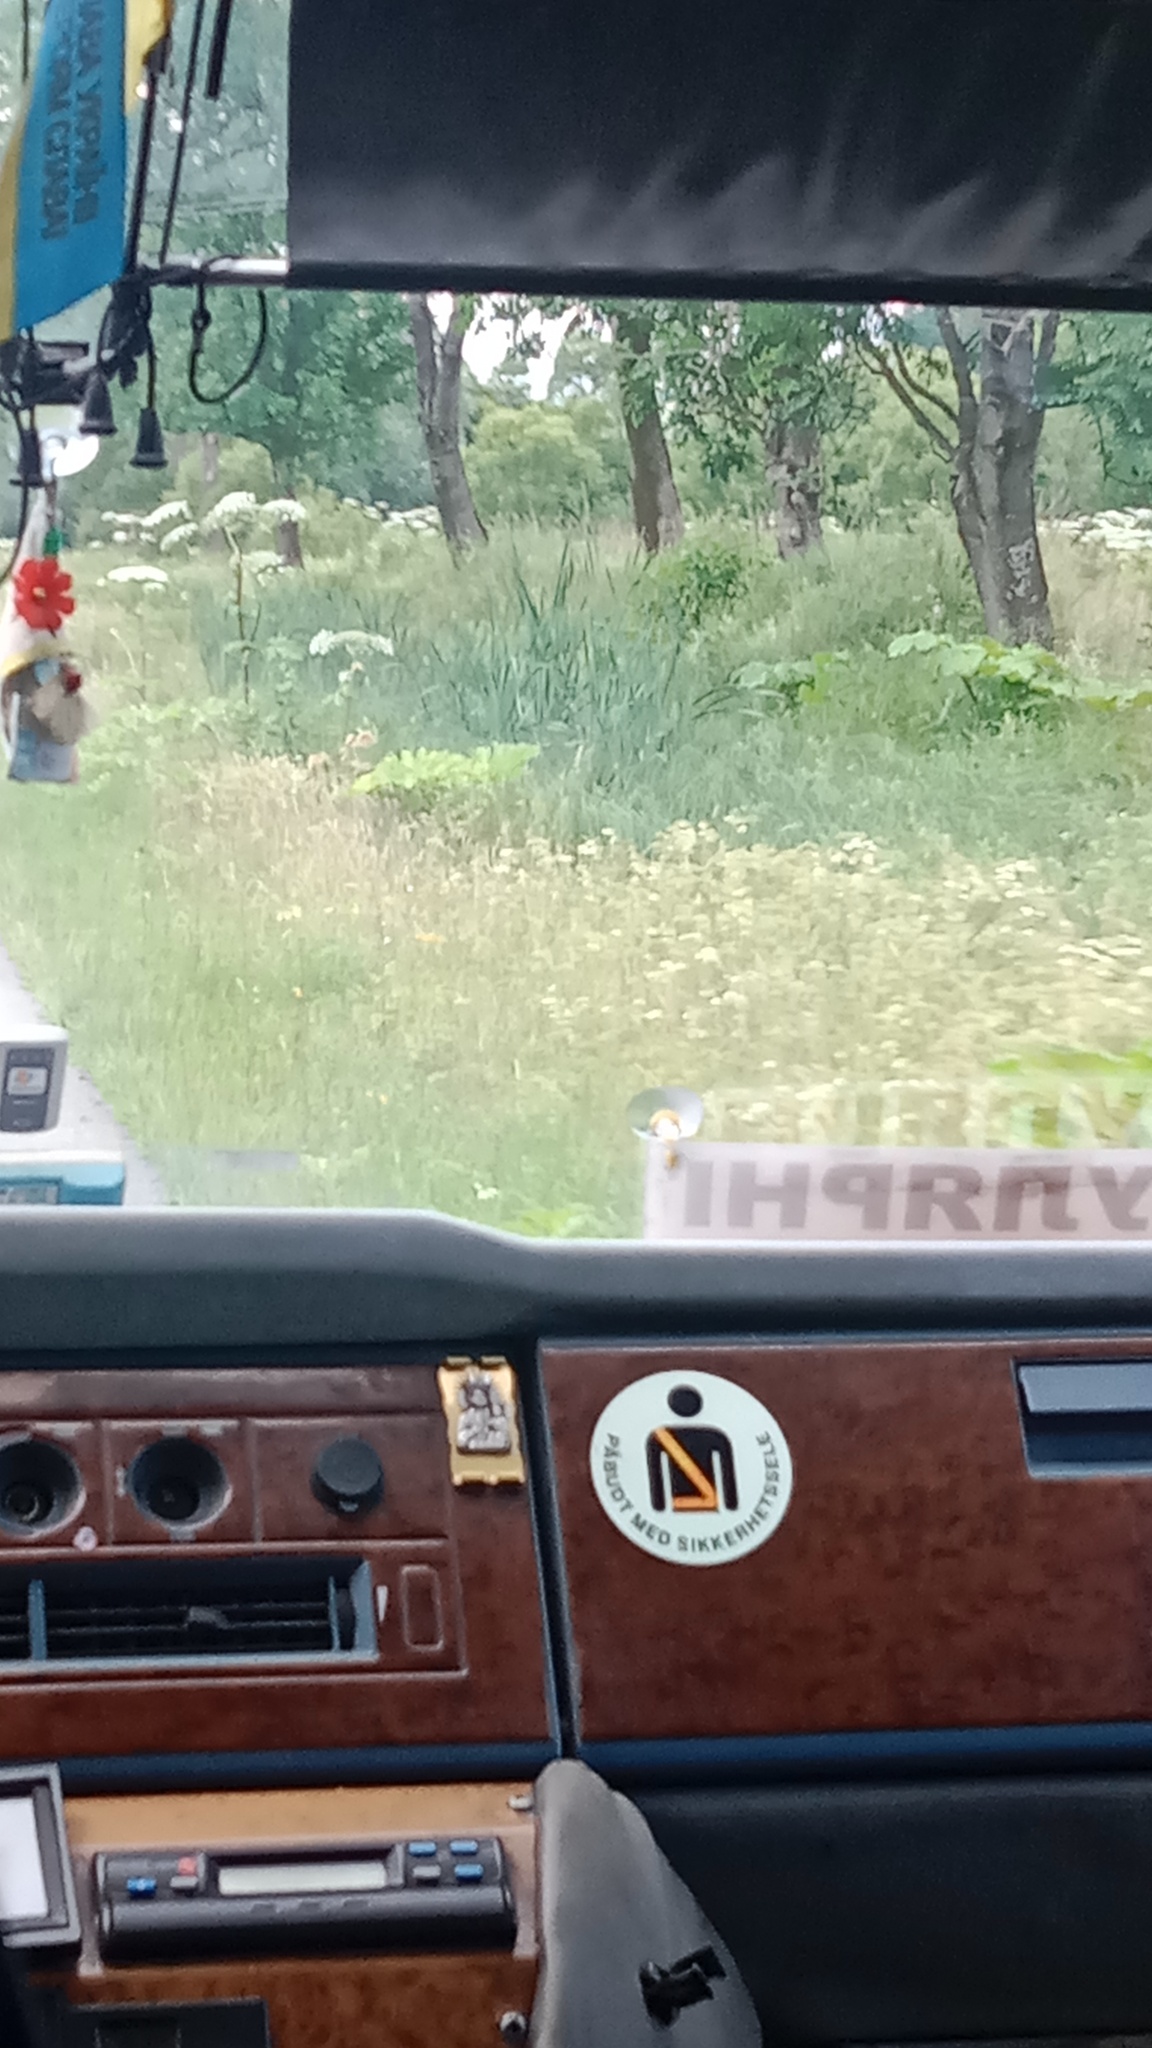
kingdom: Plantae
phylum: Tracheophyta
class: Magnoliopsida
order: Apiales
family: Apiaceae
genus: Heracleum
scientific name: Heracleum sosnowskyi
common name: Sosnowsky's hogweed
